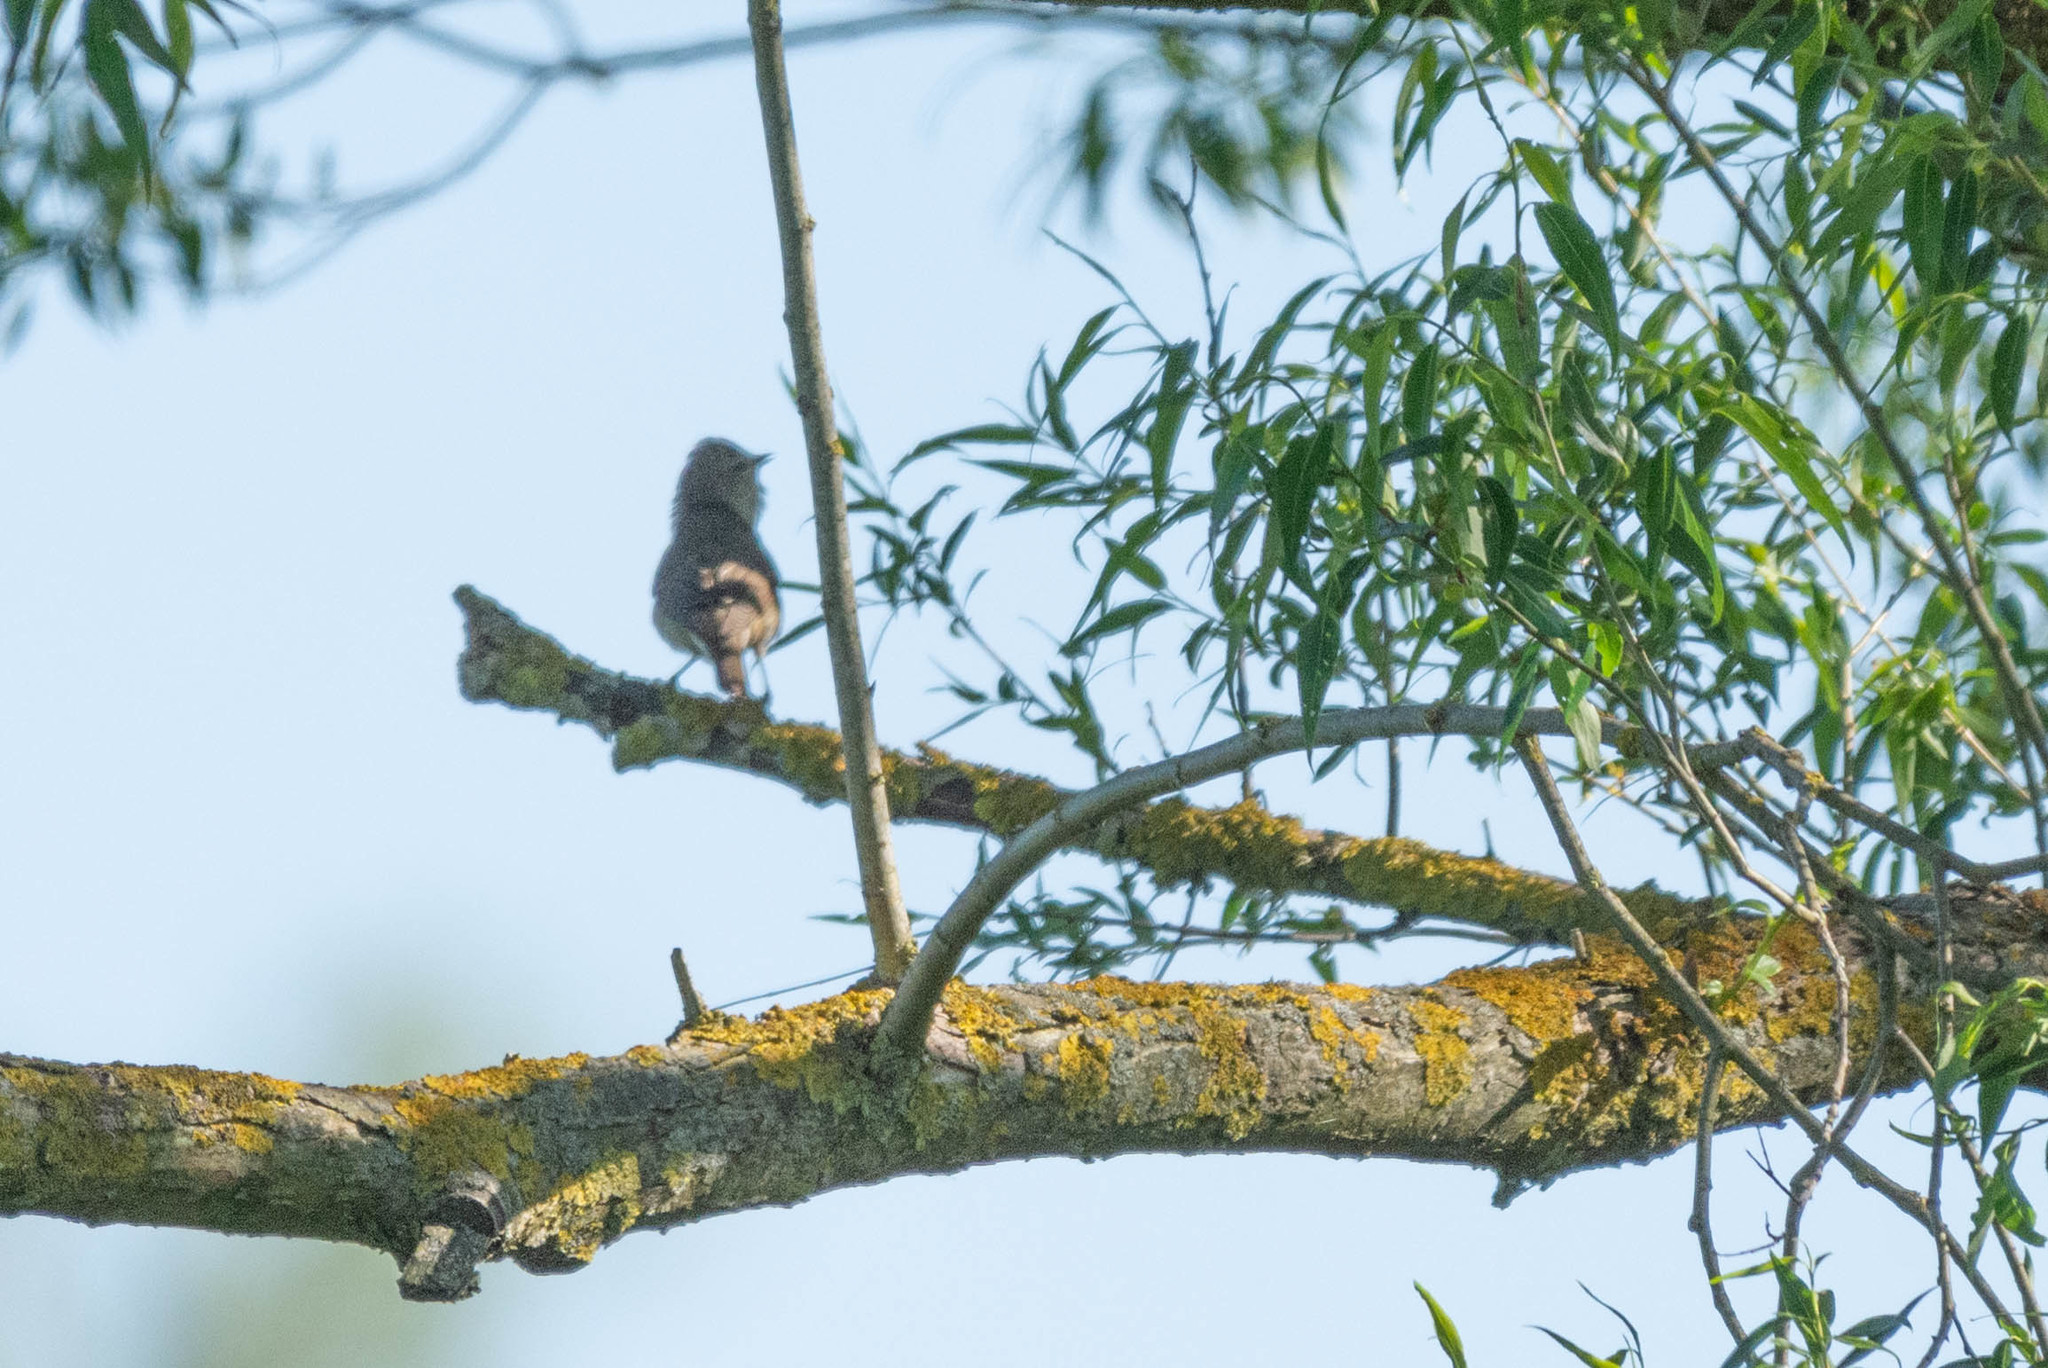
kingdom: Animalia
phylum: Chordata
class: Aves
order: Passeriformes
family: Sylviidae
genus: Sylvia
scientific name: Sylvia borin
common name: Garden warbler
